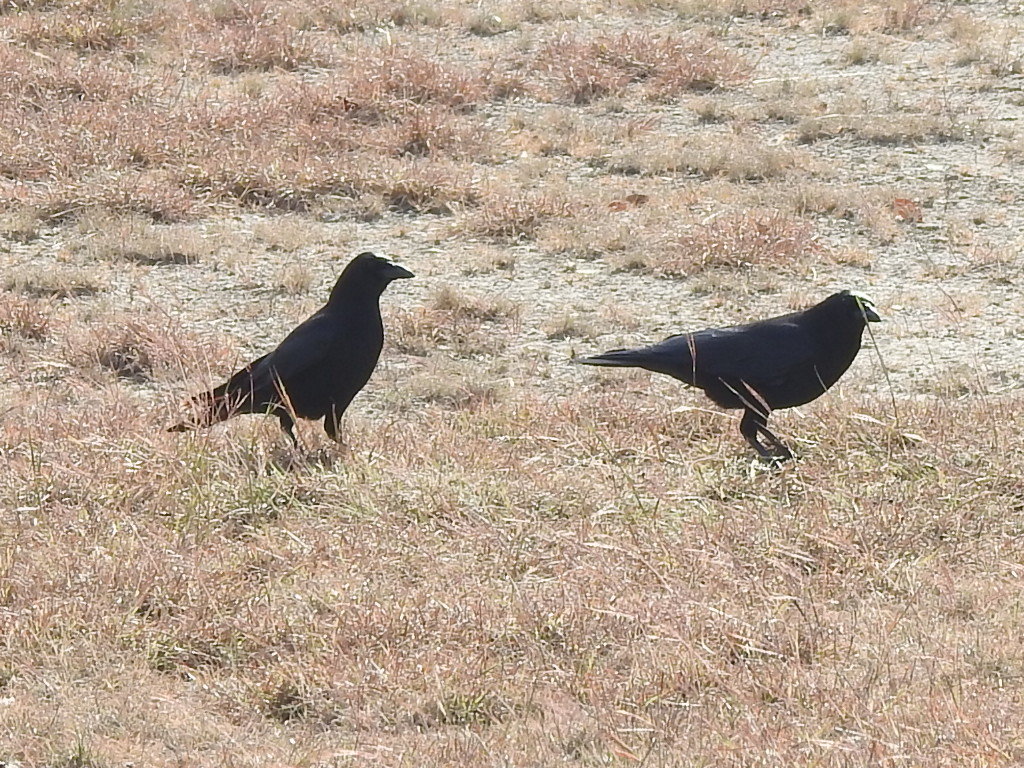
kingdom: Animalia
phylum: Chordata
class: Aves
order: Passeriformes
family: Corvidae
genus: Corvus
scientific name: Corvus brachyrhynchos
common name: American crow
